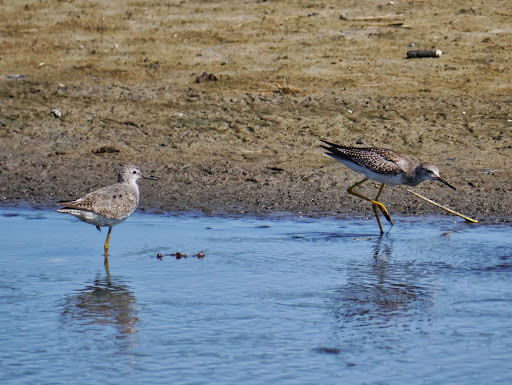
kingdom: Animalia
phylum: Chordata
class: Aves
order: Charadriiformes
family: Scolopacidae
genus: Tringa
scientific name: Tringa melanoleuca
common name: Greater yellowlegs
